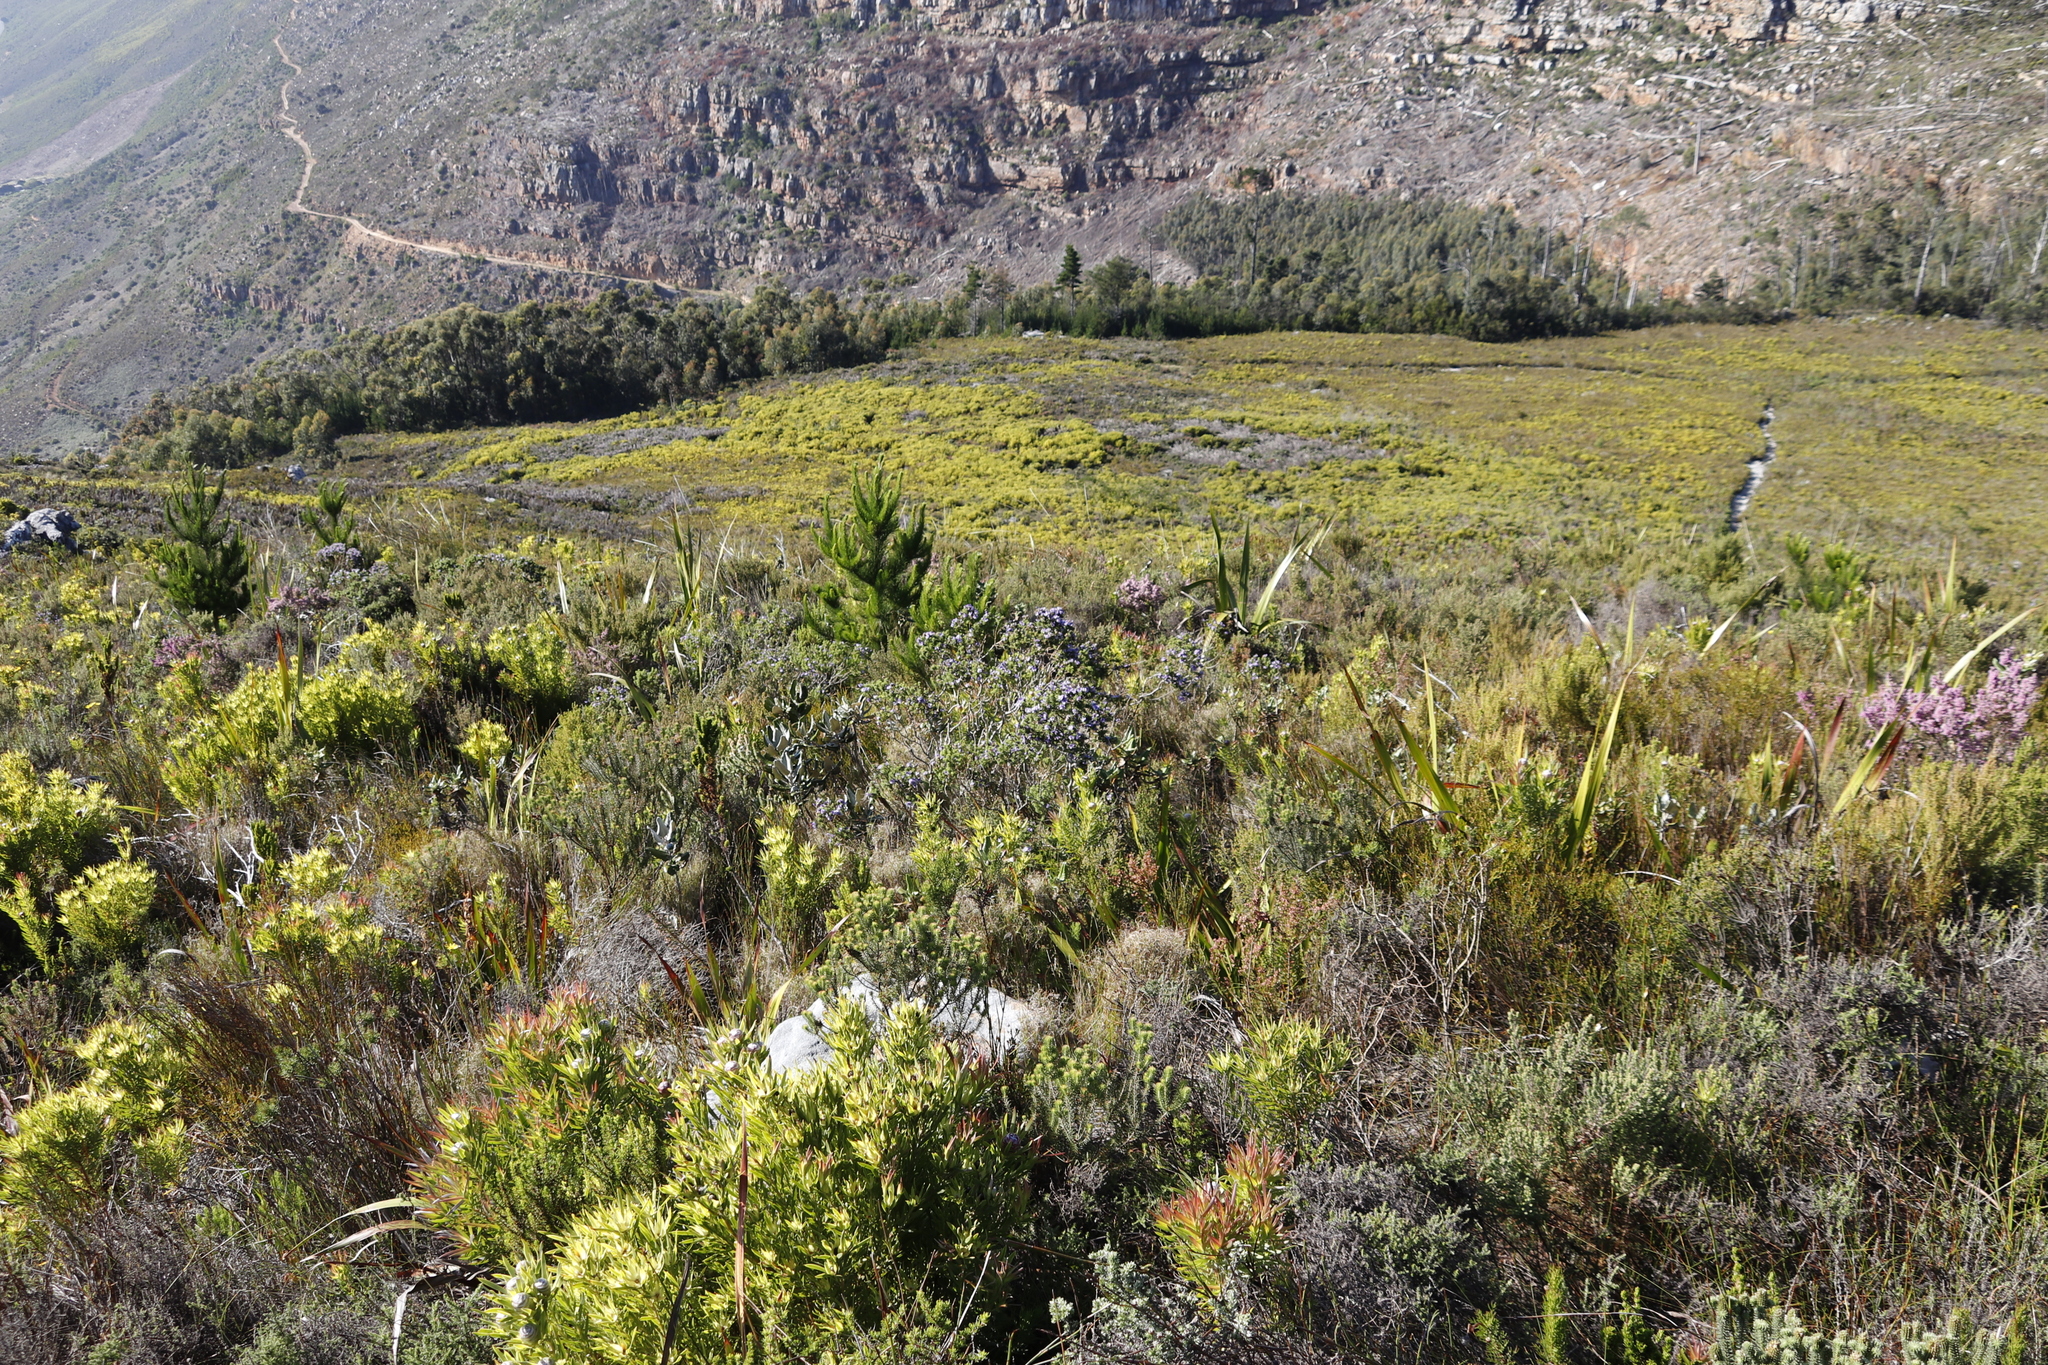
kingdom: Plantae
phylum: Tracheophyta
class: Pinopsida
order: Pinales
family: Pinaceae
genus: Pinus
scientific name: Pinus radiata
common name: Monterey pine
